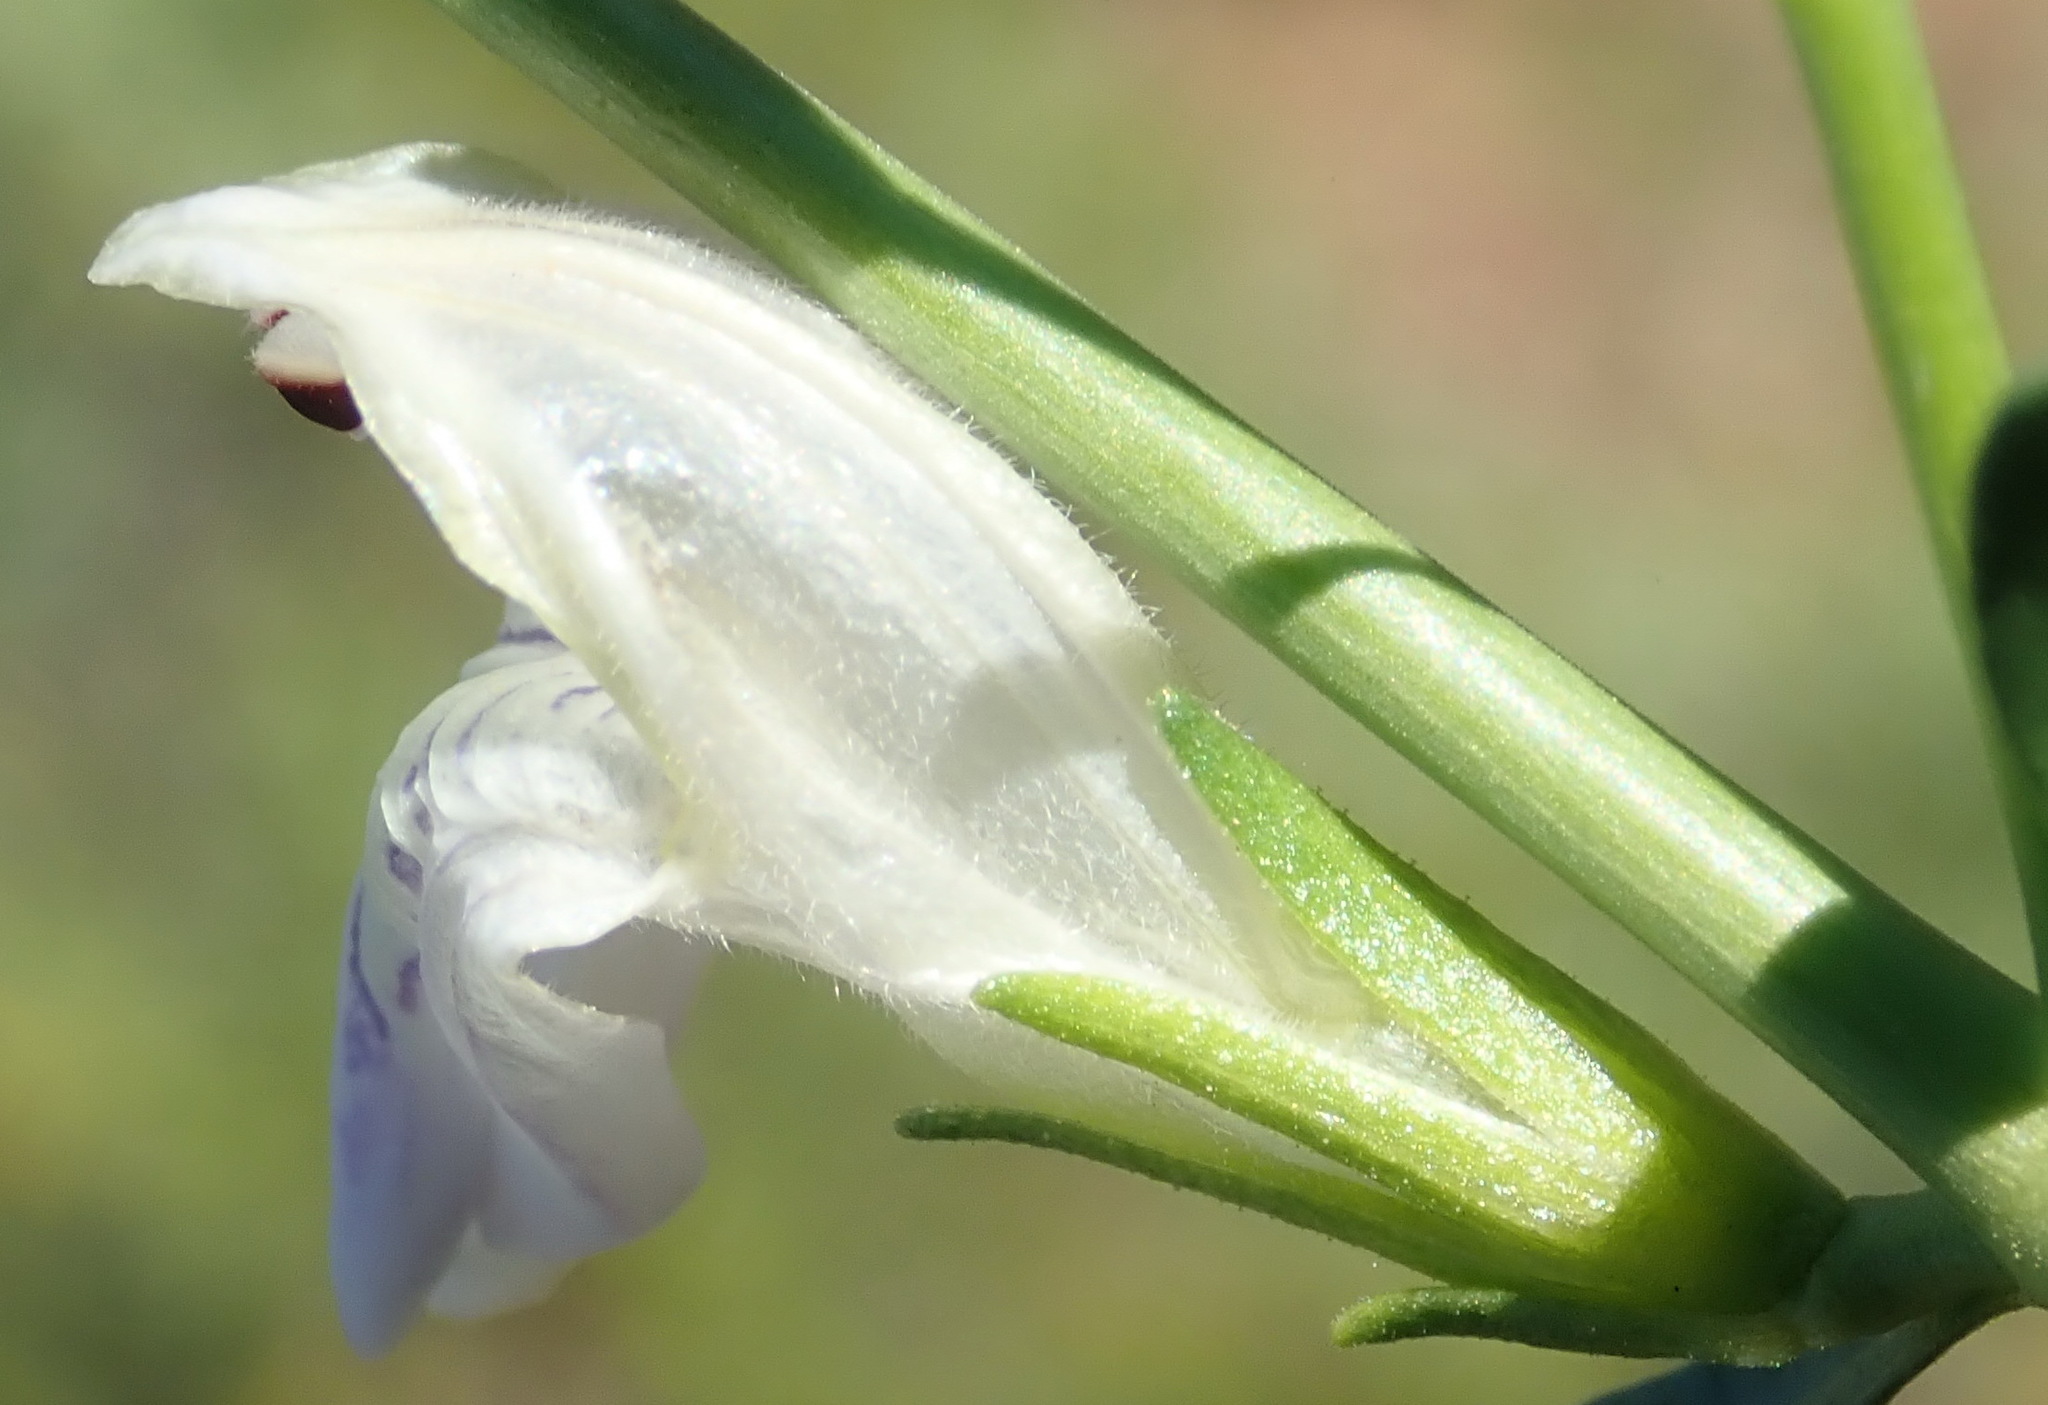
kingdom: Plantae
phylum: Tracheophyta
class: Magnoliopsida
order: Lamiales
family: Acanthaceae
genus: Pogonospermum
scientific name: Pogonospermum
